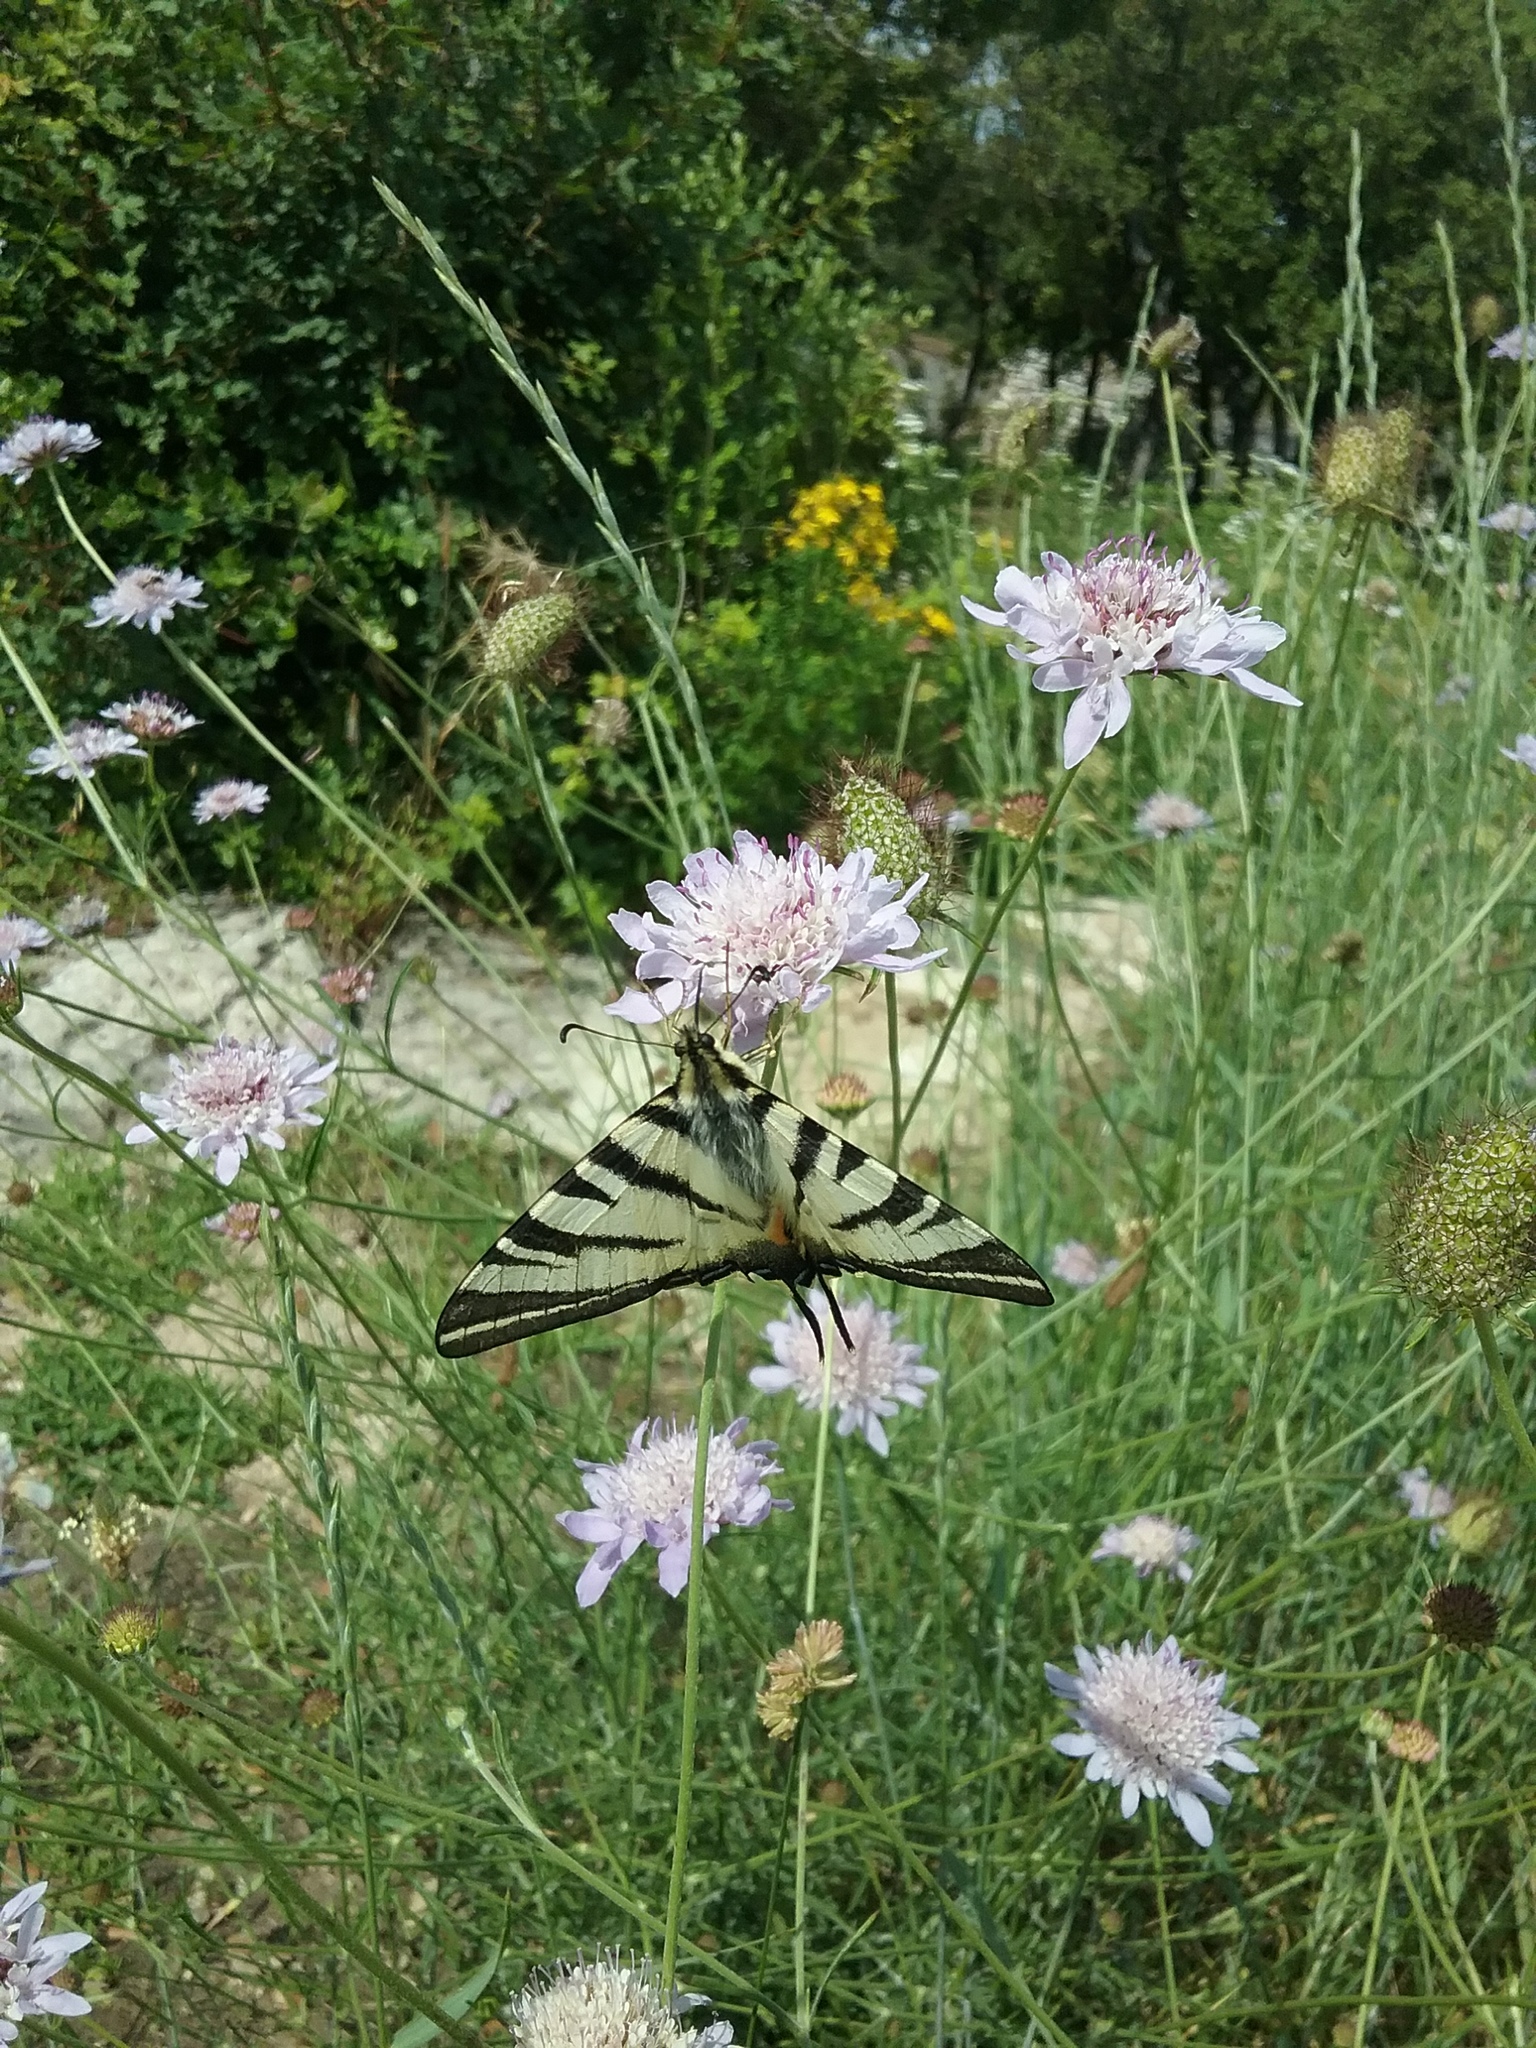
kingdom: Animalia
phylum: Arthropoda
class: Insecta
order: Lepidoptera
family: Papilionidae
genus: Iphiclides
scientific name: Iphiclides podalirius
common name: Scarce swallowtail
